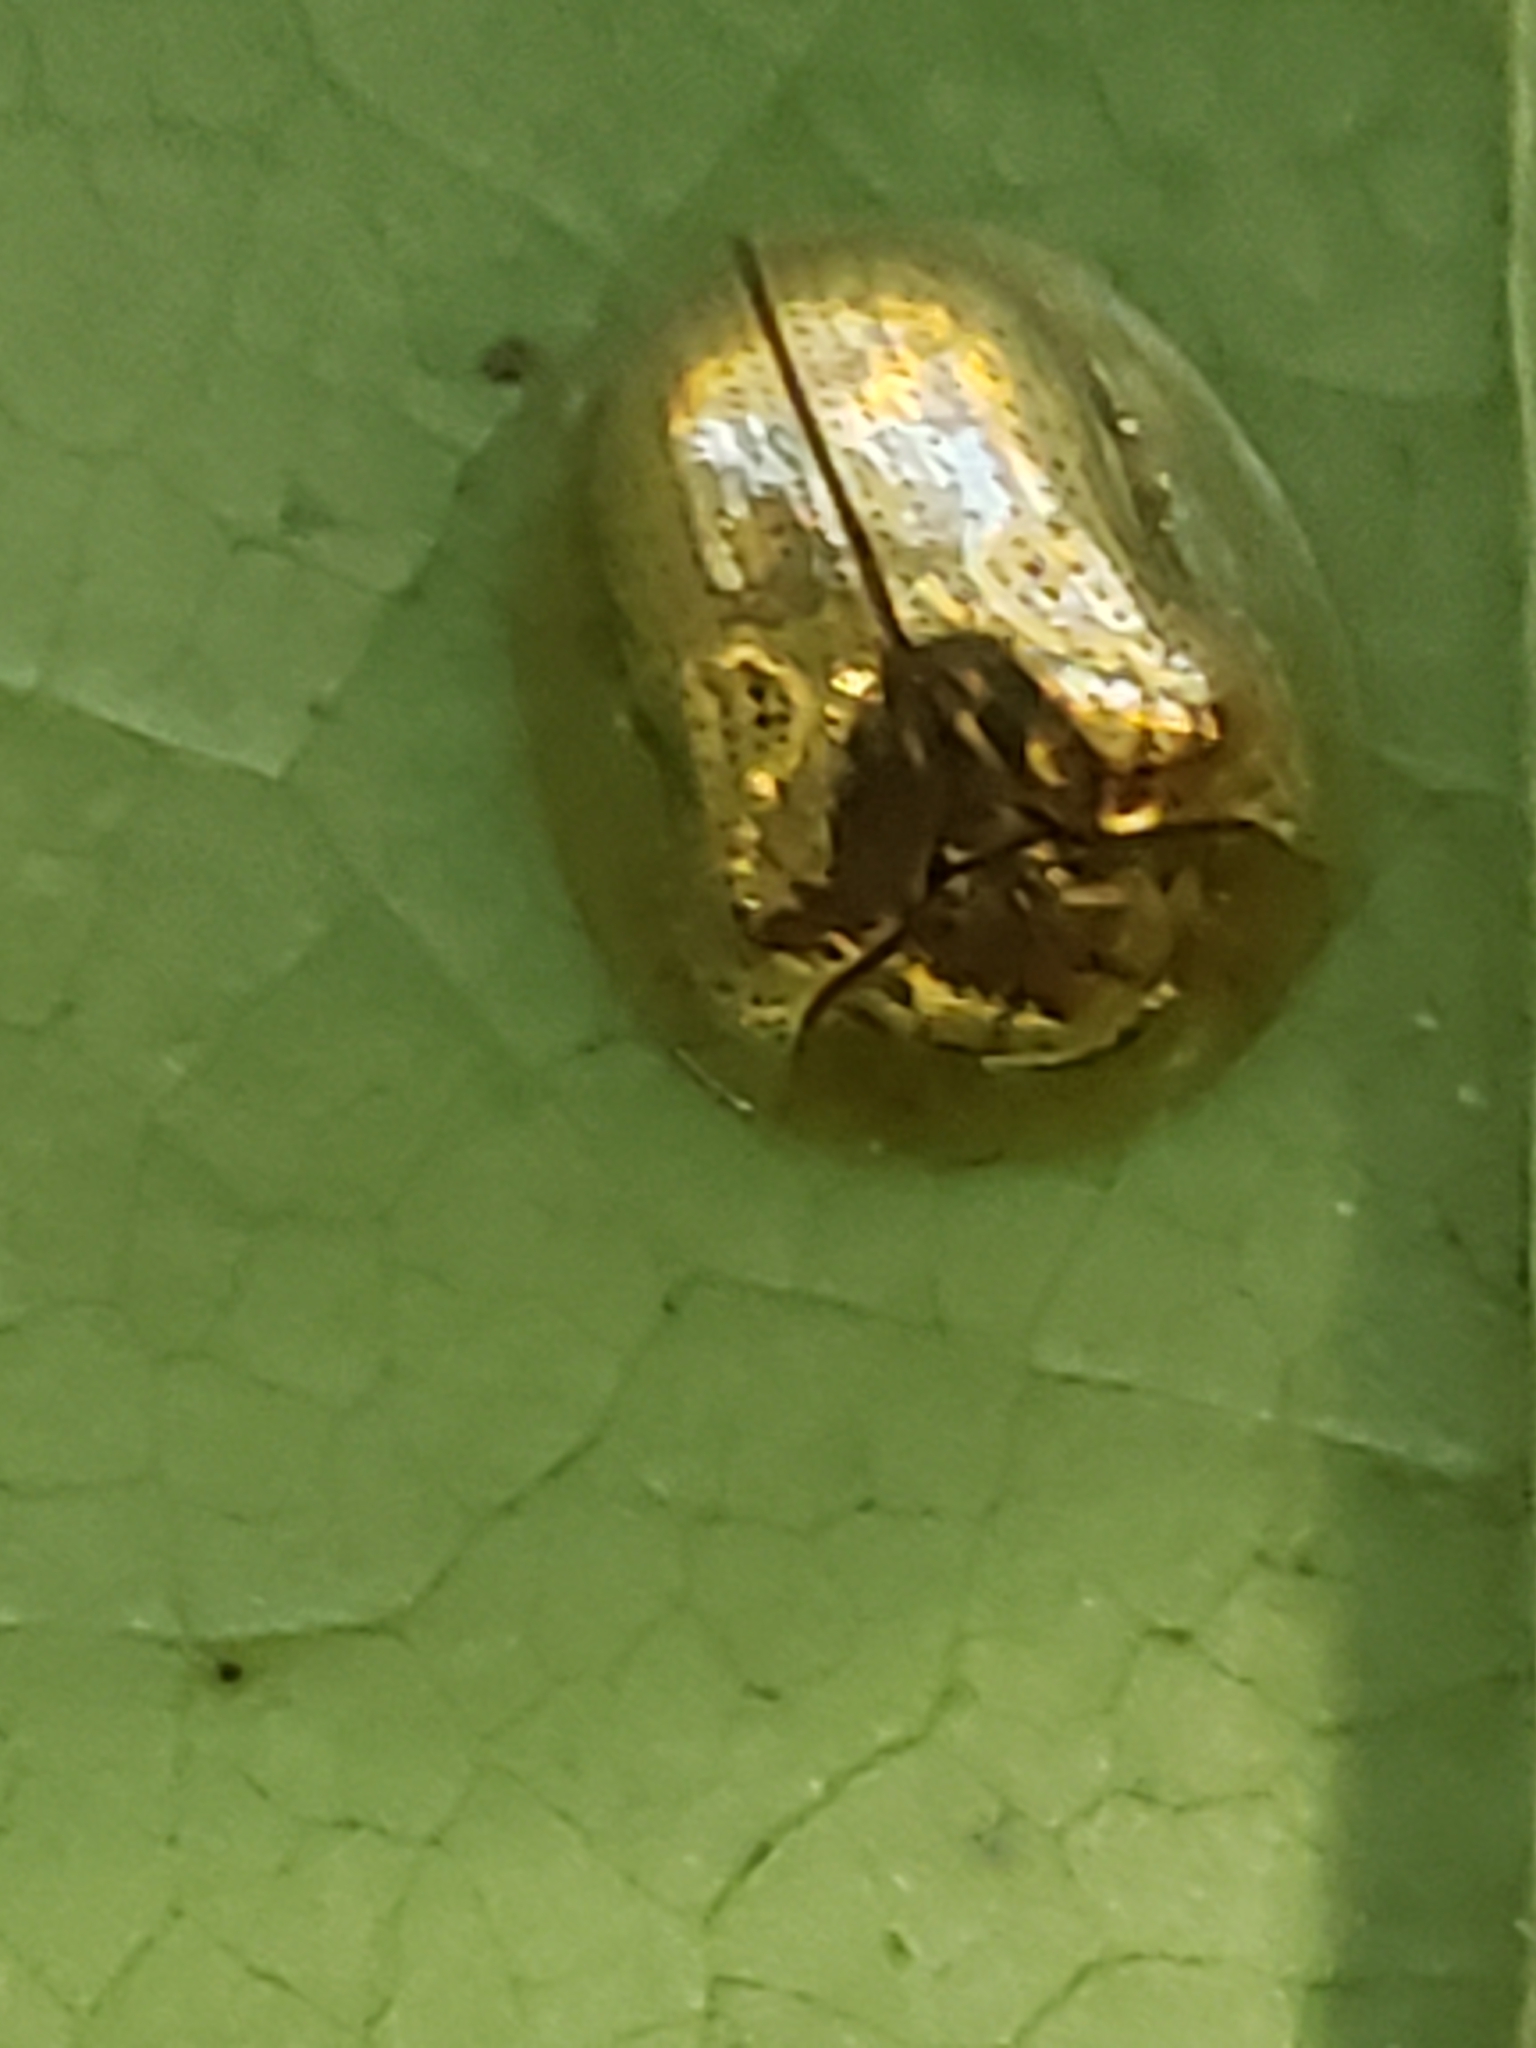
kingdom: Animalia
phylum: Arthropoda
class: Insecta
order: Coleoptera
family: Chrysomelidae
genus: Charidotella
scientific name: Charidotella sexpunctata
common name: Golden tortoise beetle
